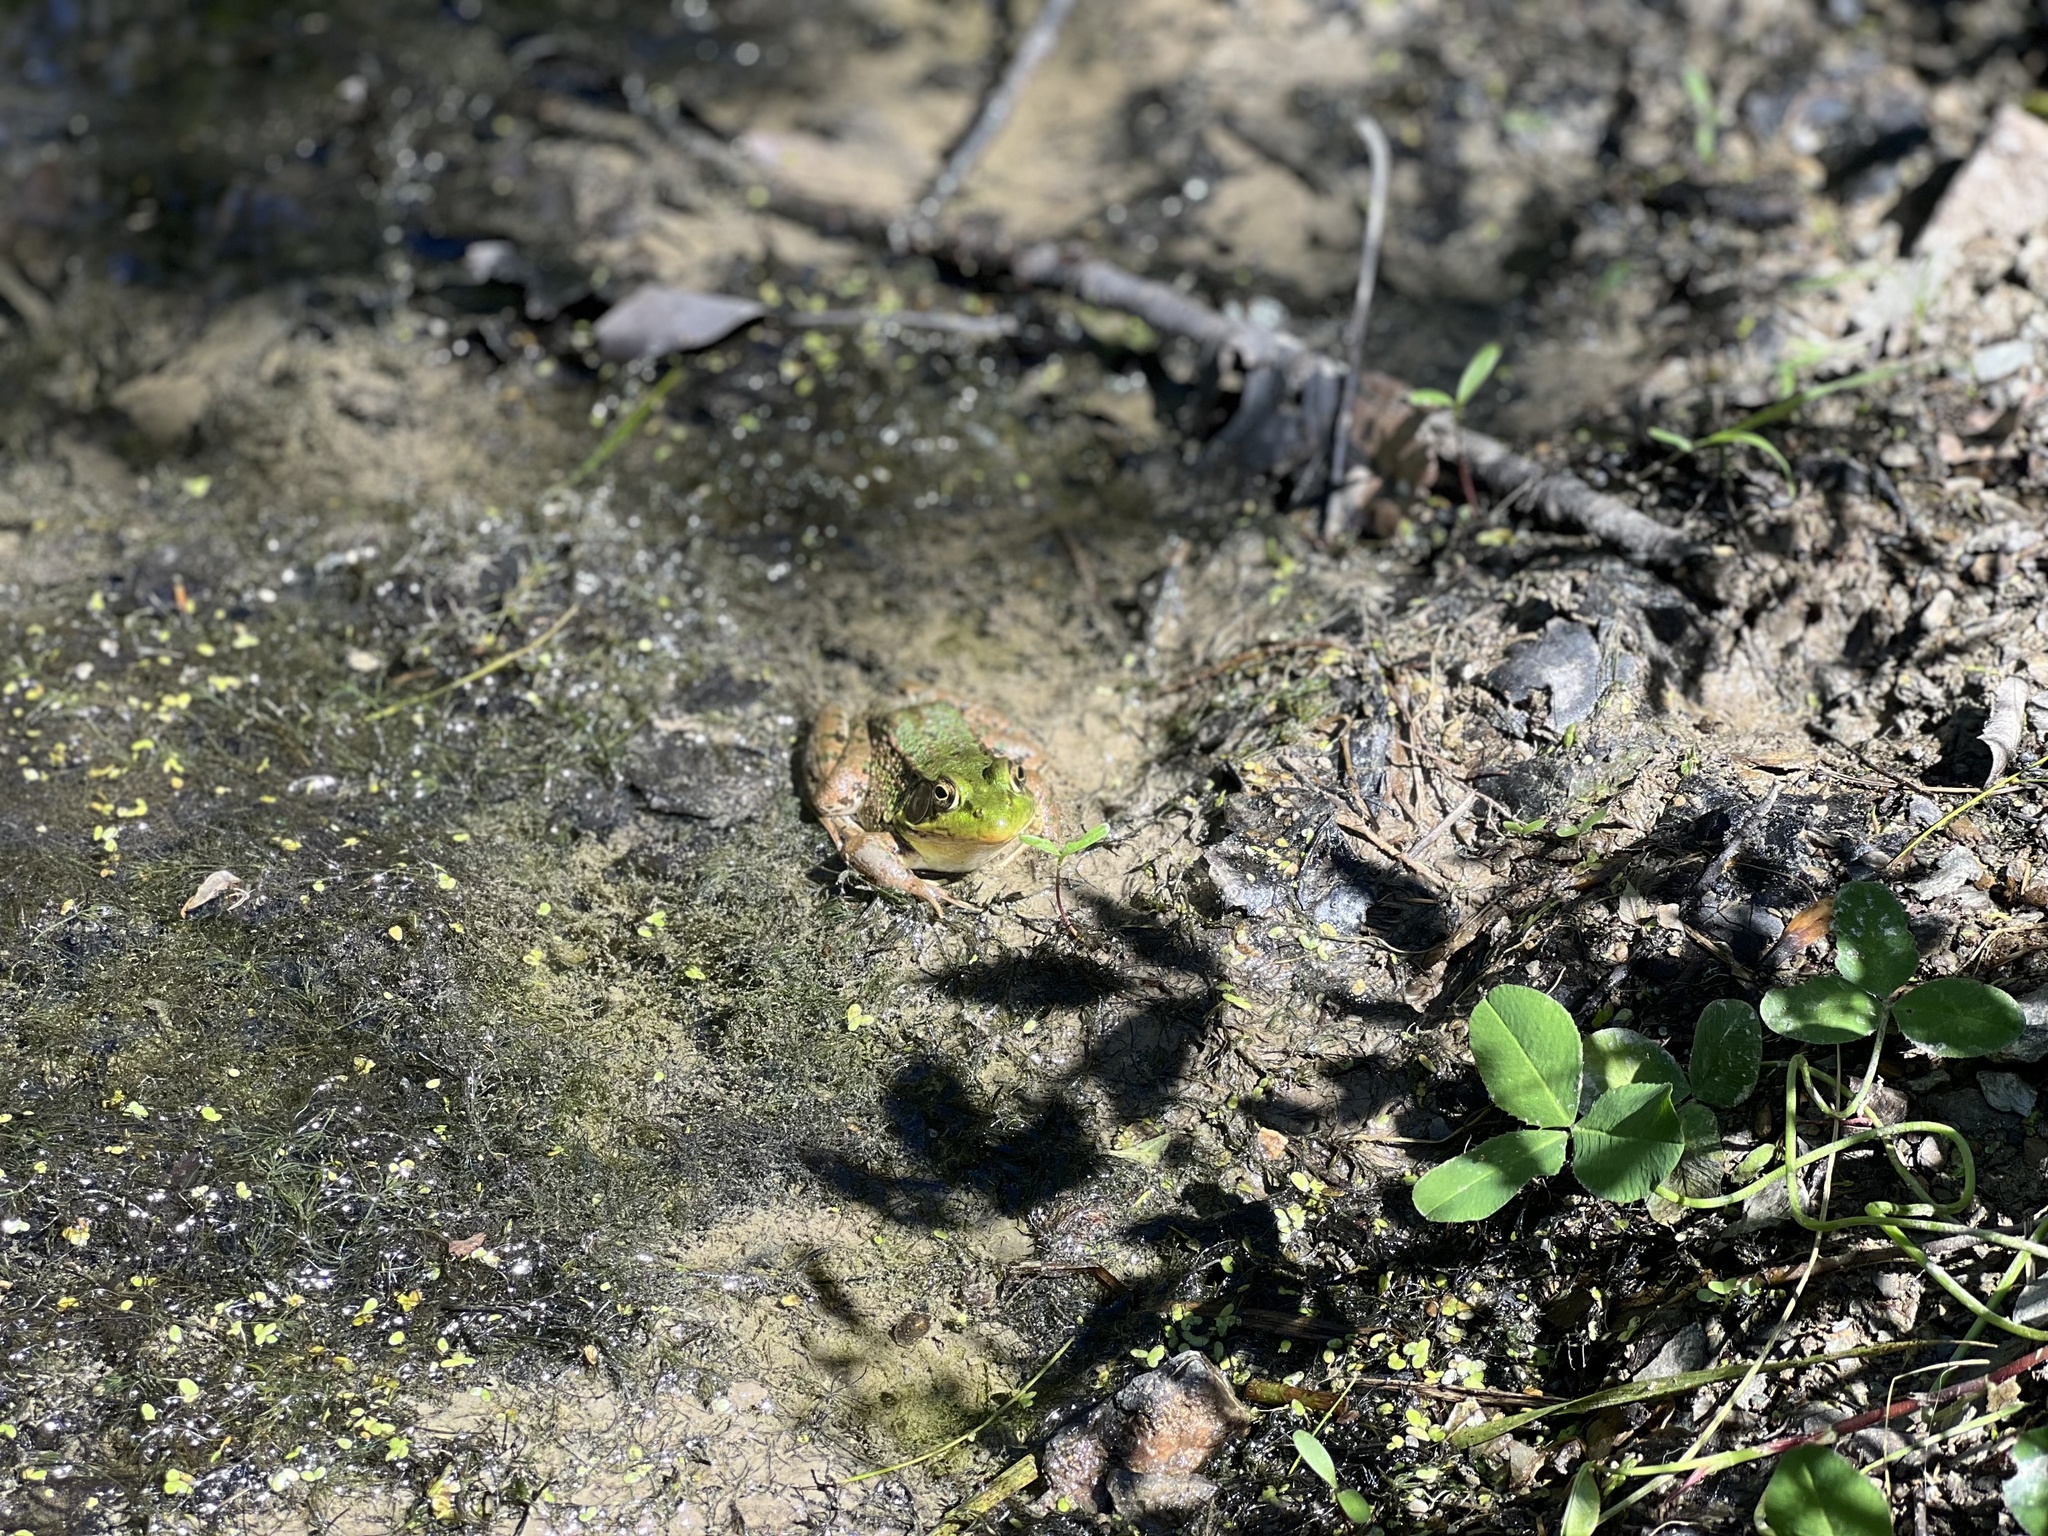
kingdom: Animalia
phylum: Chordata
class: Amphibia
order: Anura
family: Ranidae
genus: Lithobates
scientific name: Lithobates clamitans
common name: Green frog
